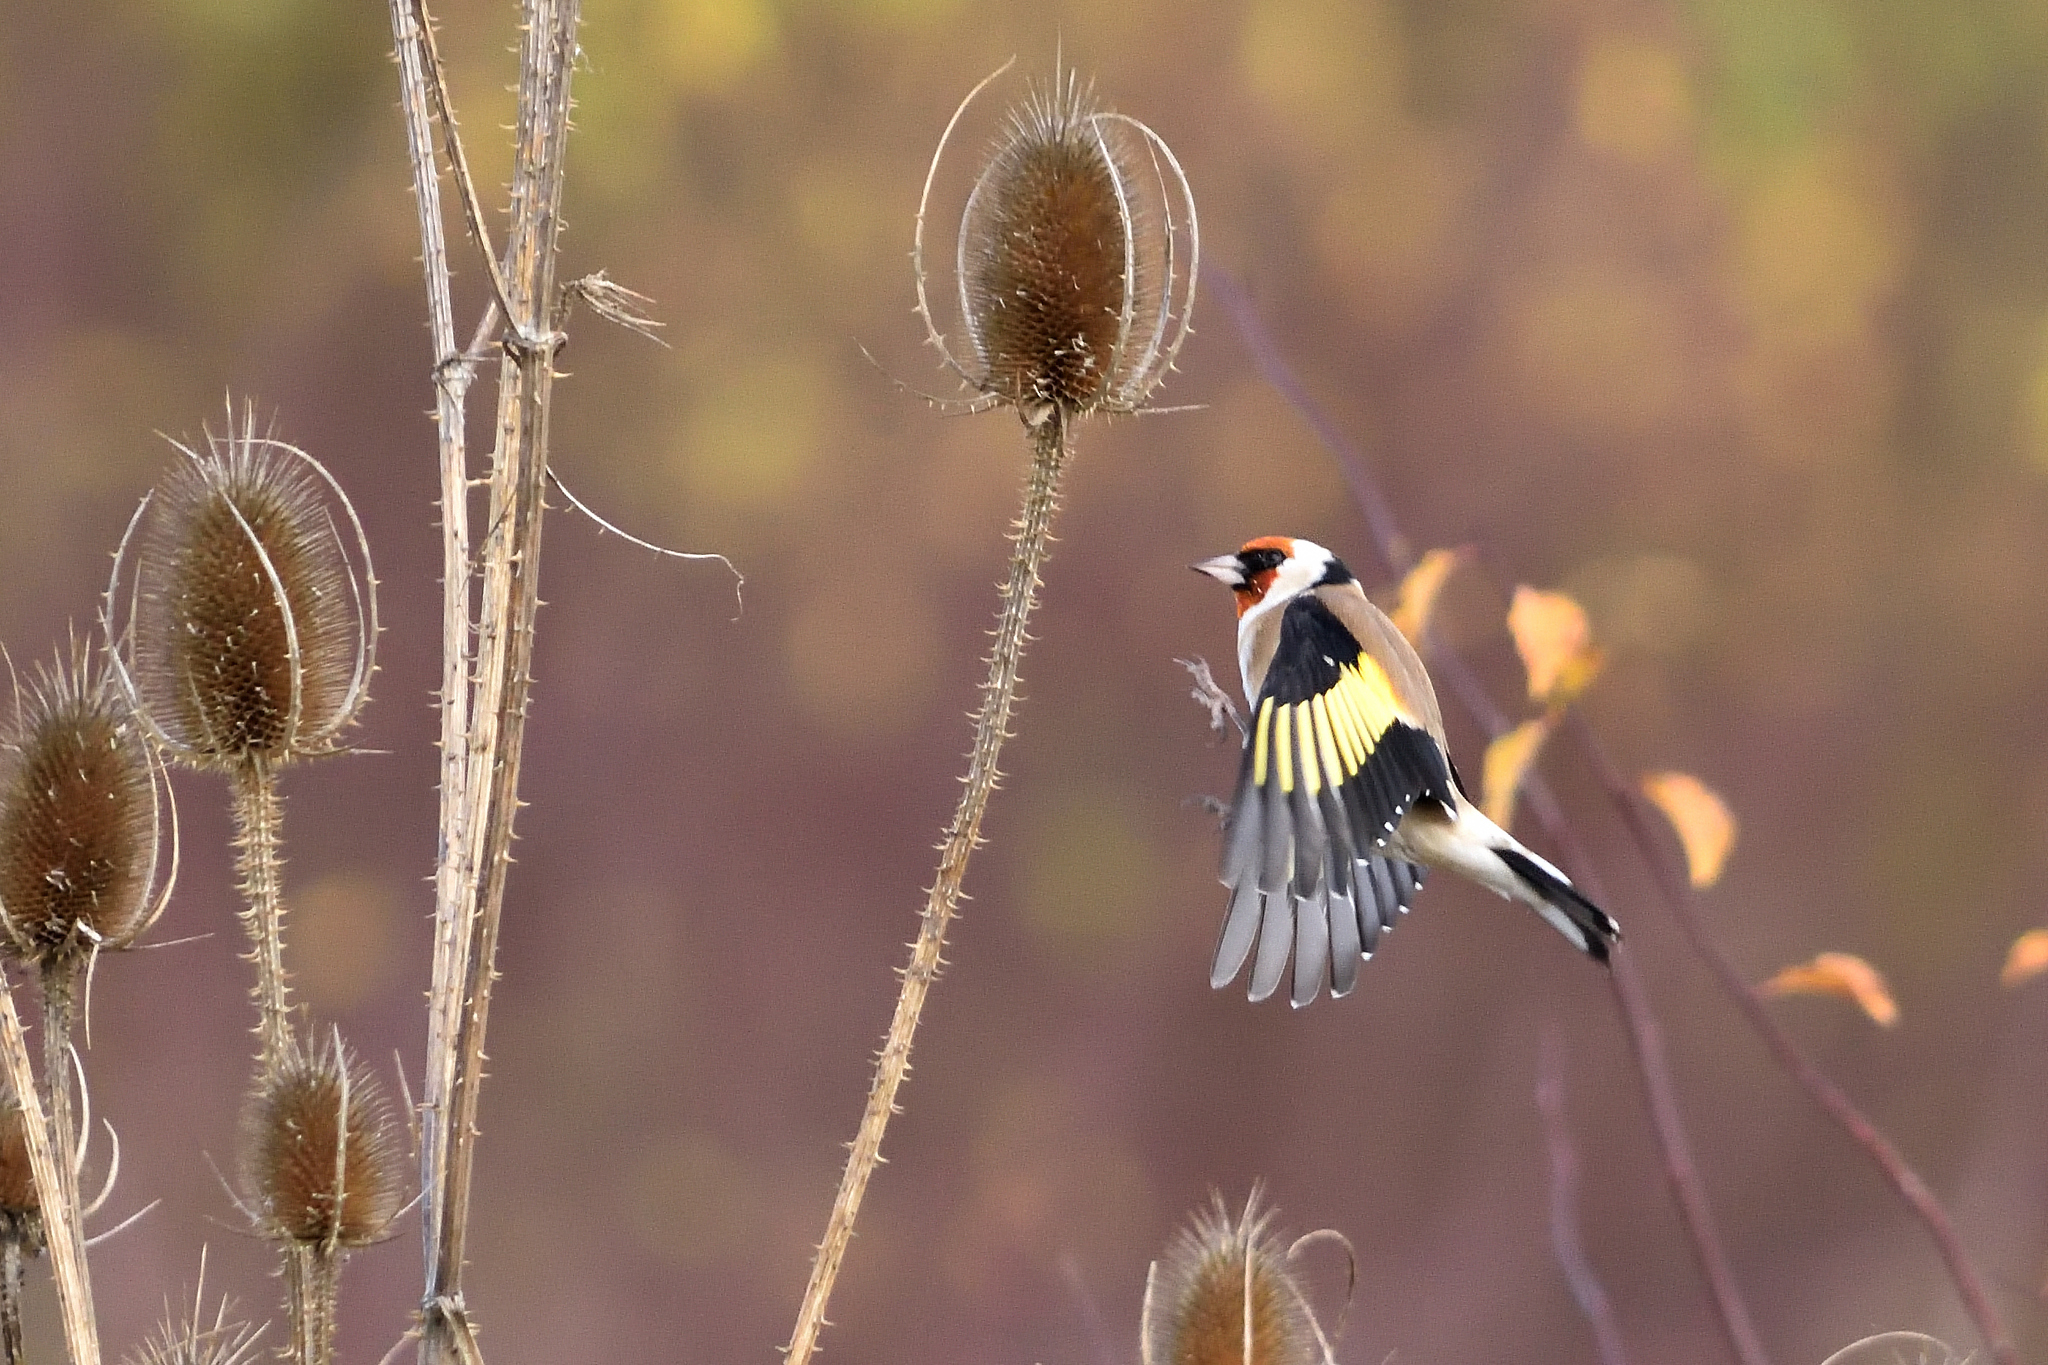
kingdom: Animalia
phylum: Chordata
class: Aves
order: Passeriformes
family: Fringillidae
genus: Carduelis
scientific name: Carduelis carduelis
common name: European goldfinch
